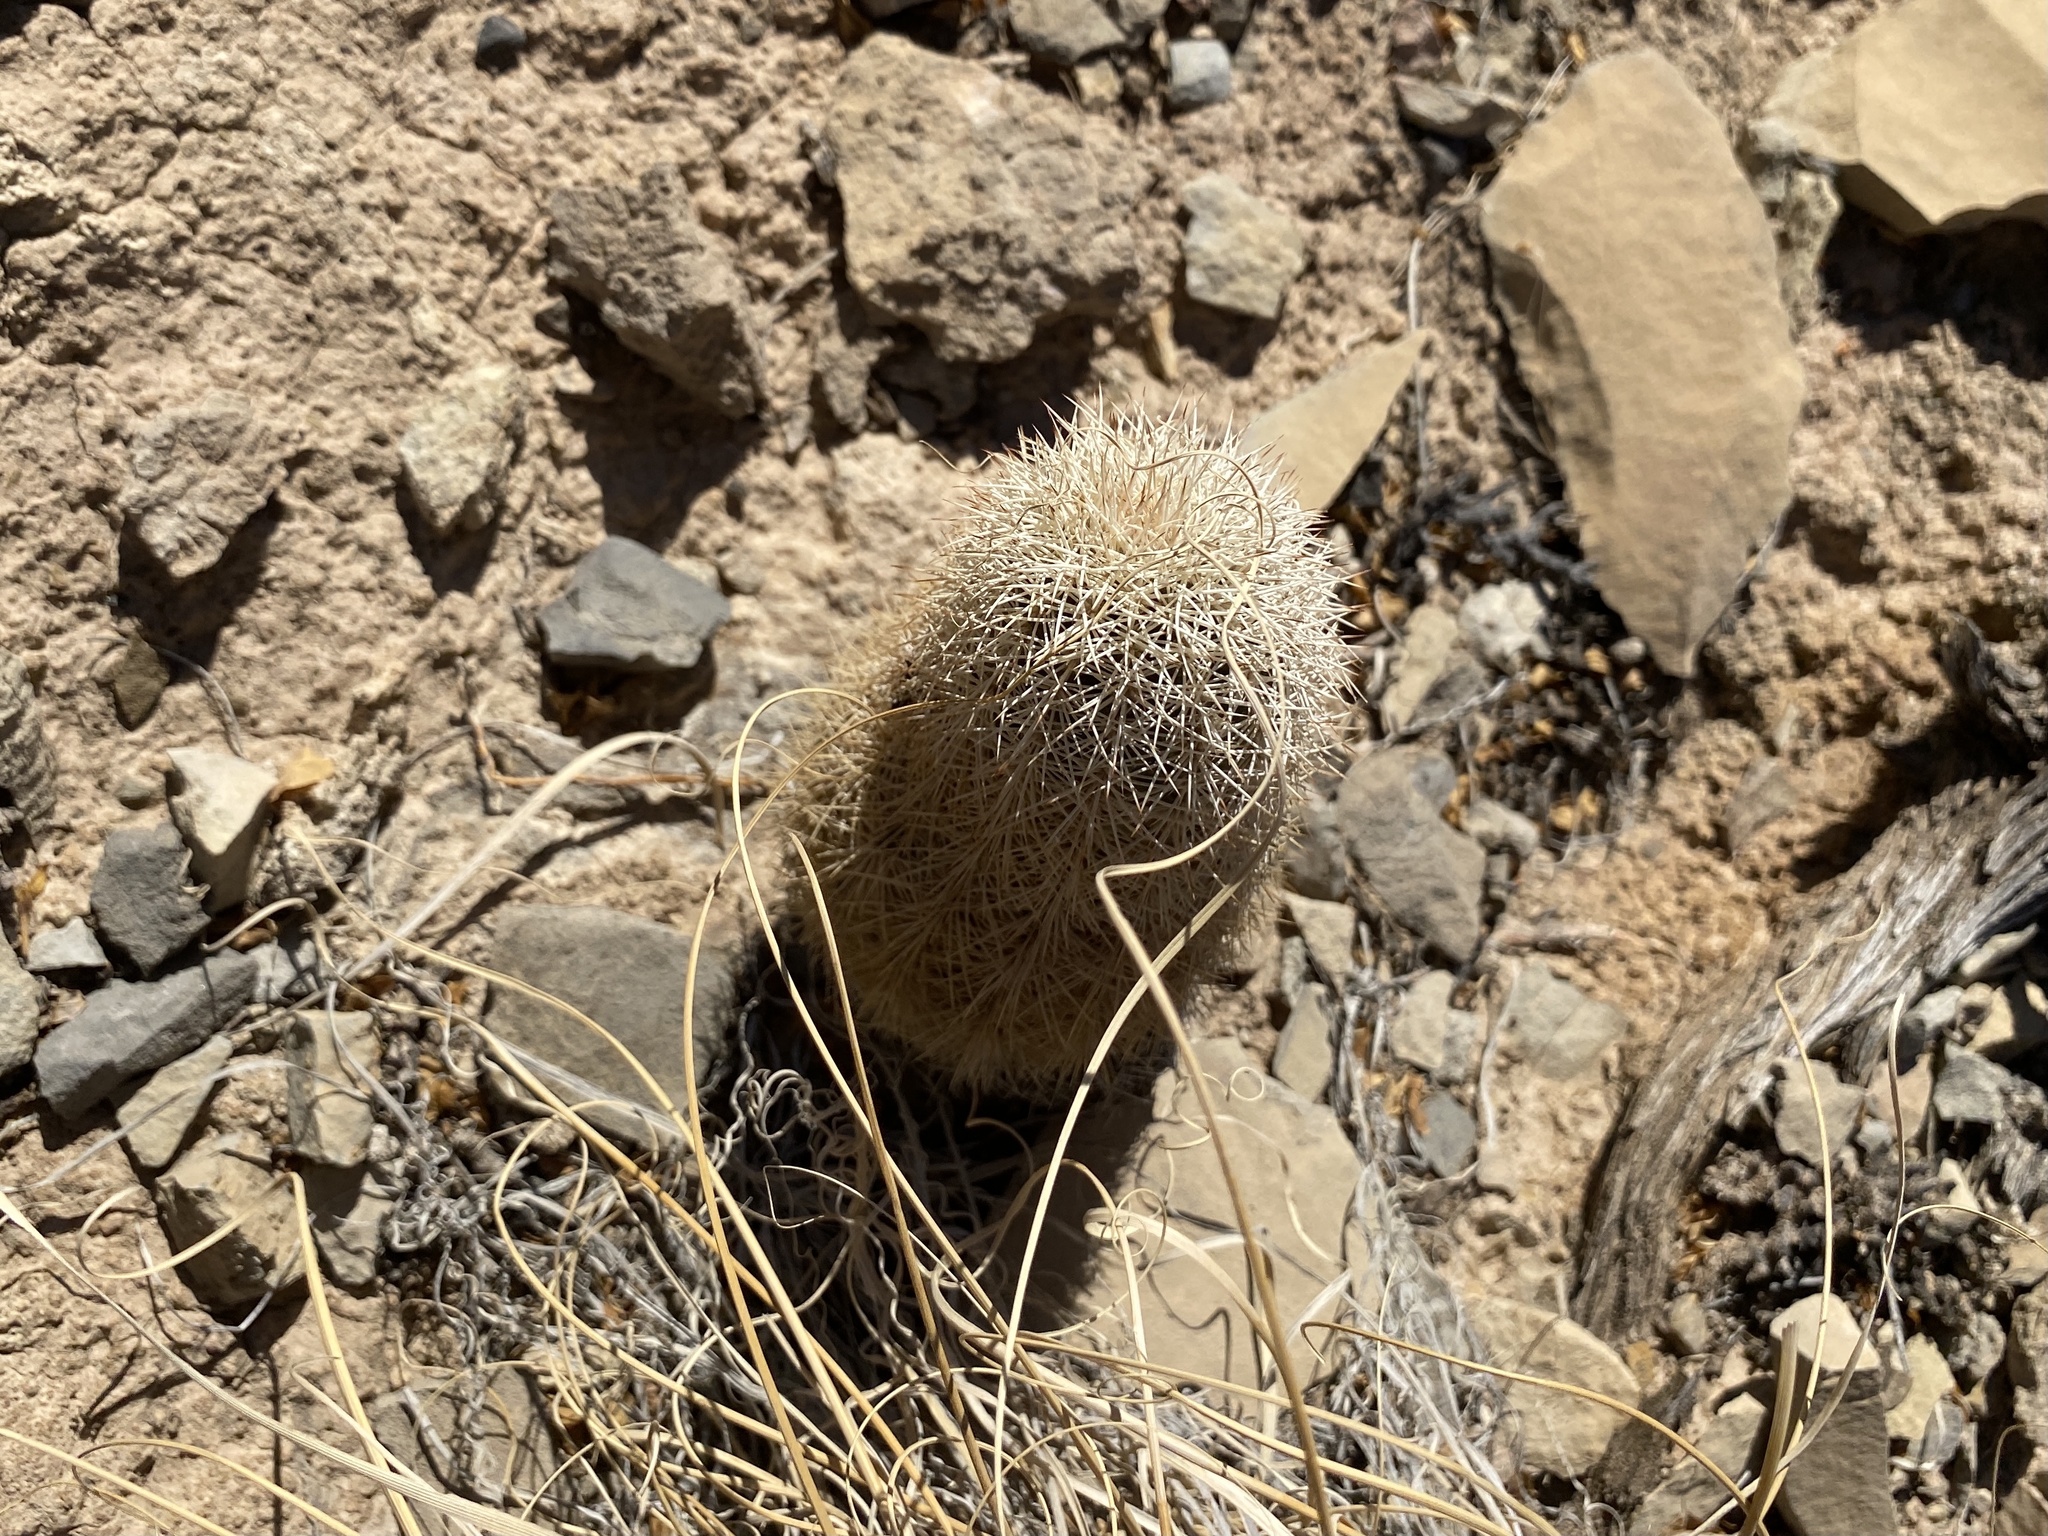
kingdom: Plantae
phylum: Tracheophyta
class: Magnoliopsida
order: Caryophyllales
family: Cactaceae
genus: Echinocereus
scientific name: Echinocereus dasyacanthus
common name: Spiny hedgehog cactus
